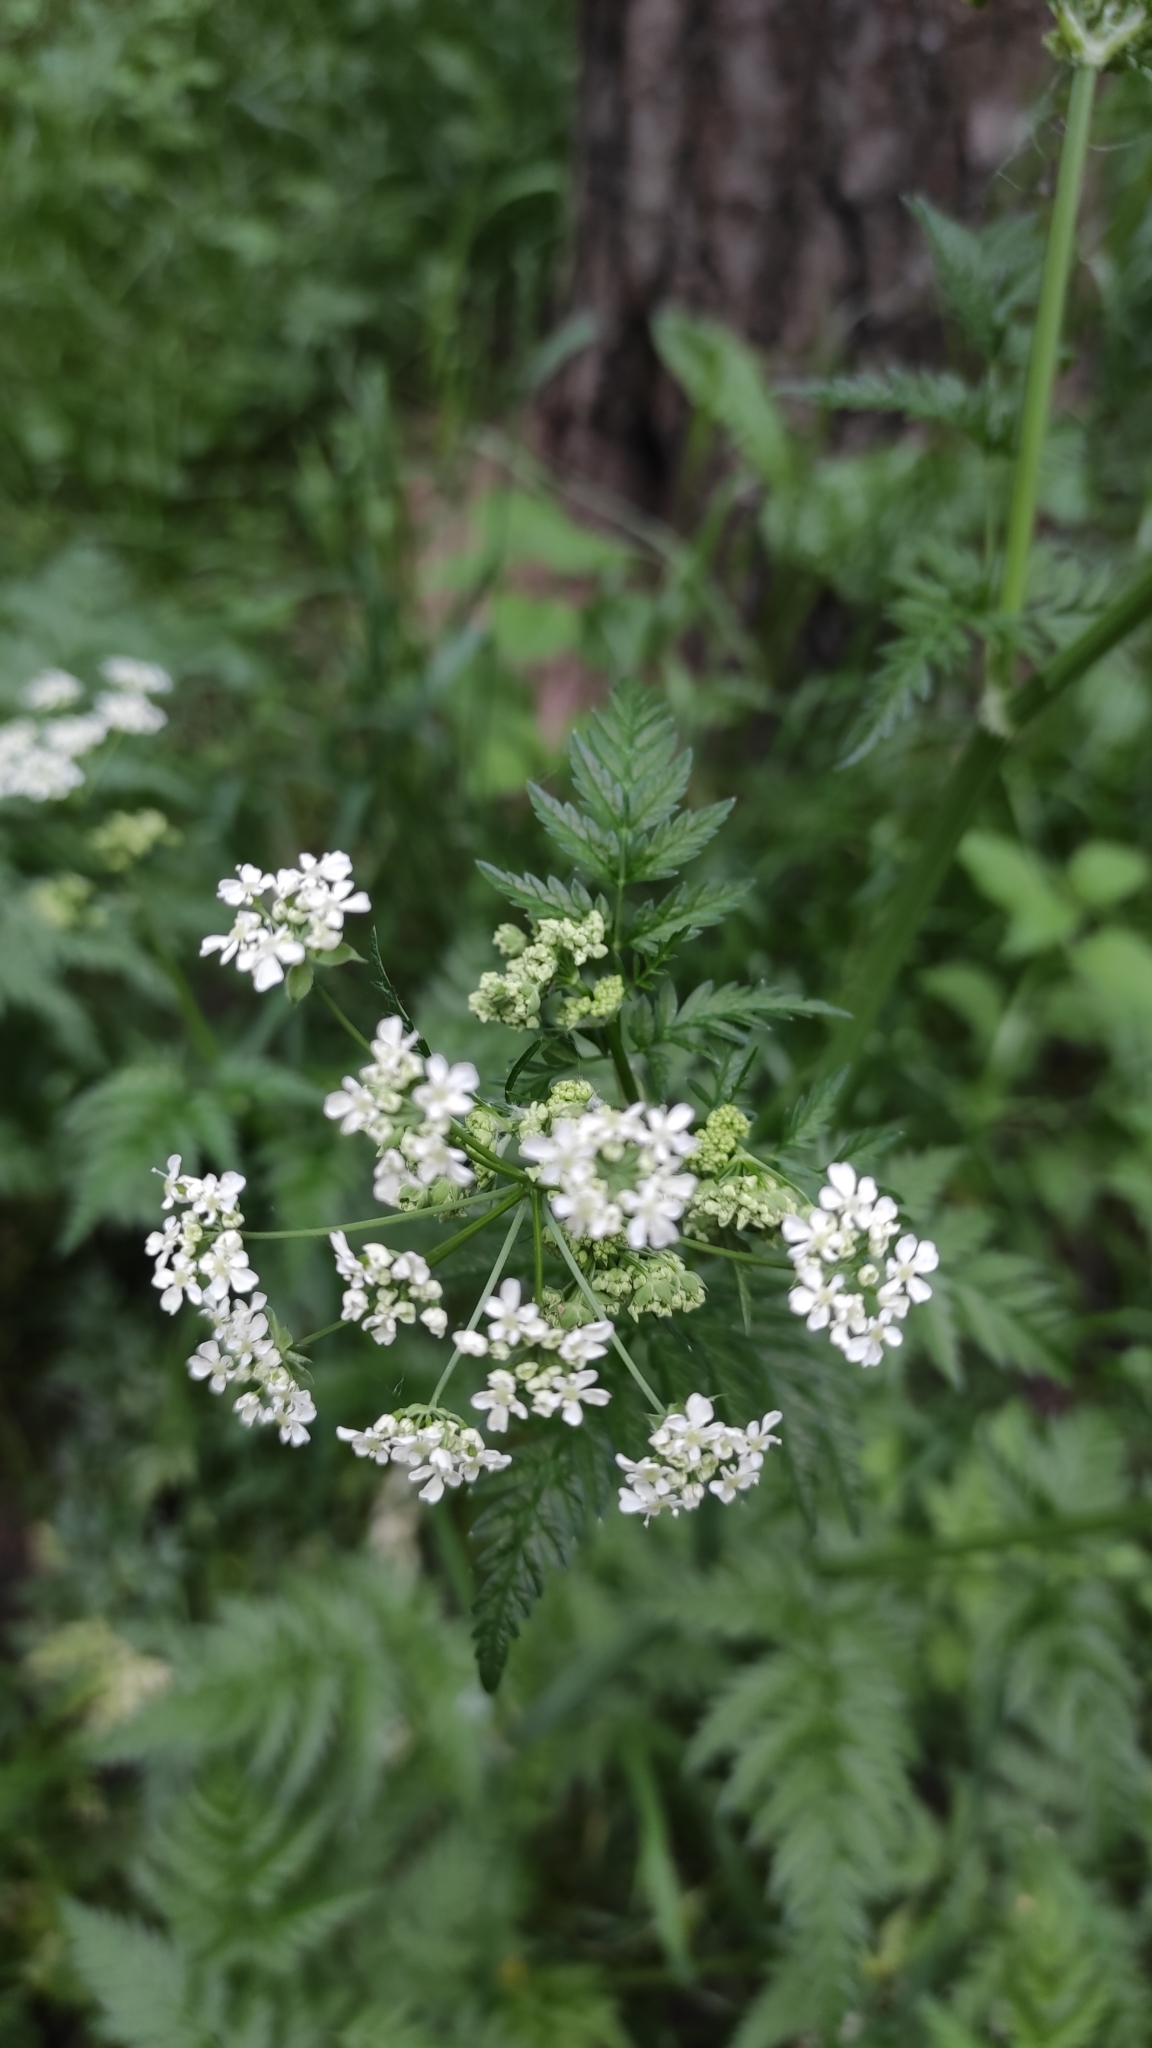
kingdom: Plantae
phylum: Tracheophyta
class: Magnoliopsida
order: Apiales
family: Apiaceae
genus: Anthriscus
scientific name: Anthriscus sylvestris
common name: Cow parsley
